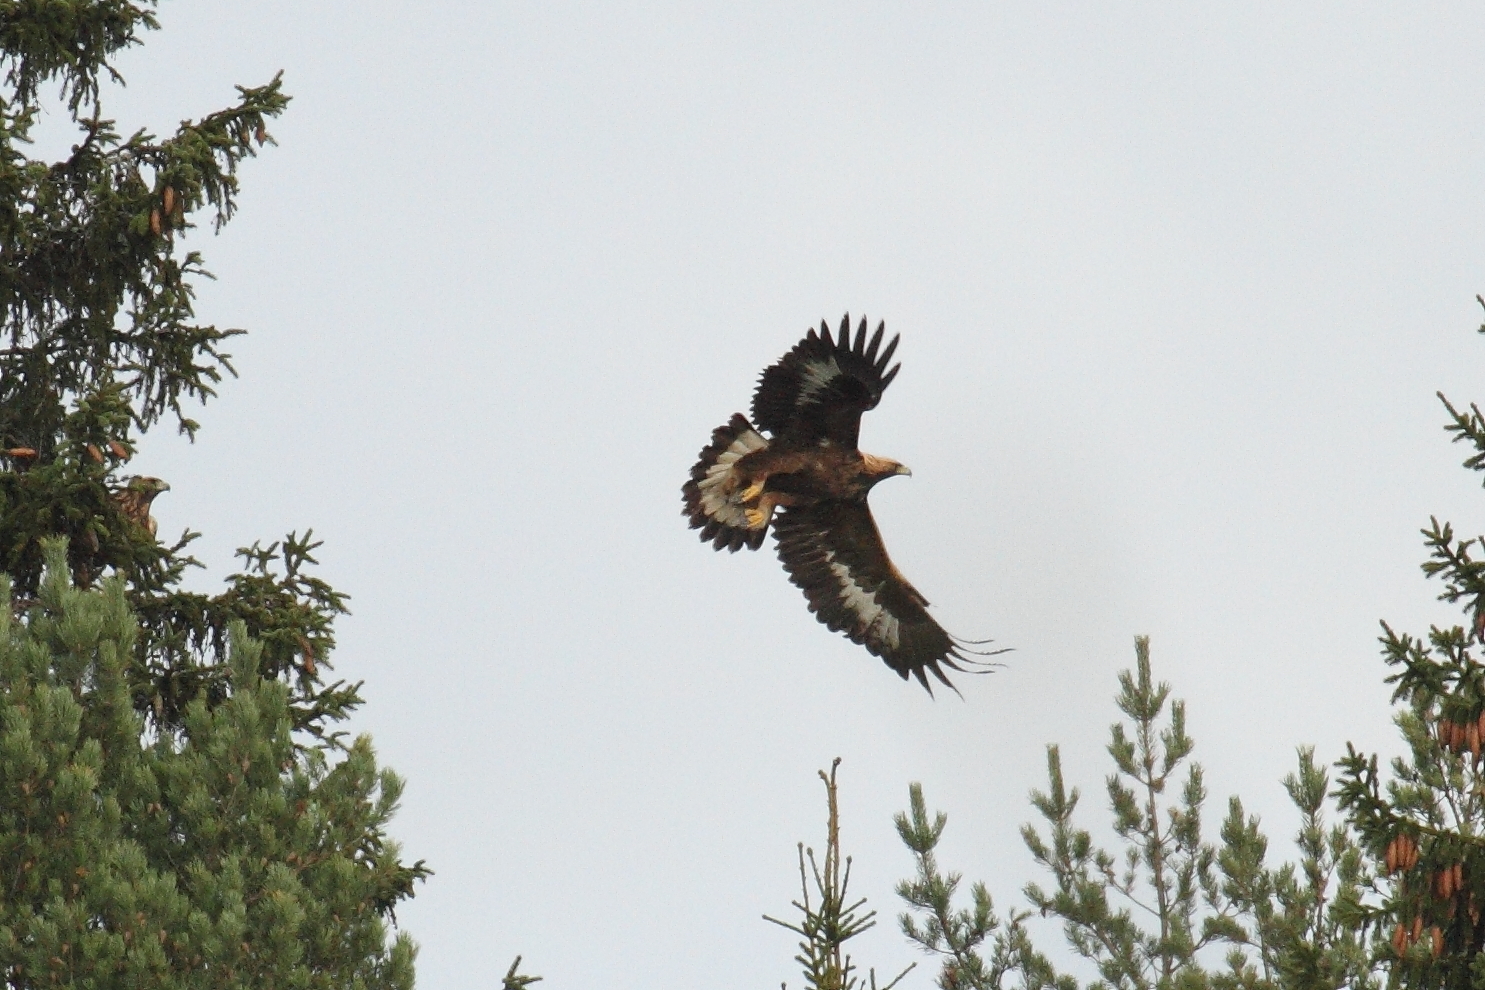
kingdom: Animalia
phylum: Chordata
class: Aves
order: Accipitriformes
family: Accipitridae
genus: Aquila
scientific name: Aquila chrysaetos
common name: Golden eagle
